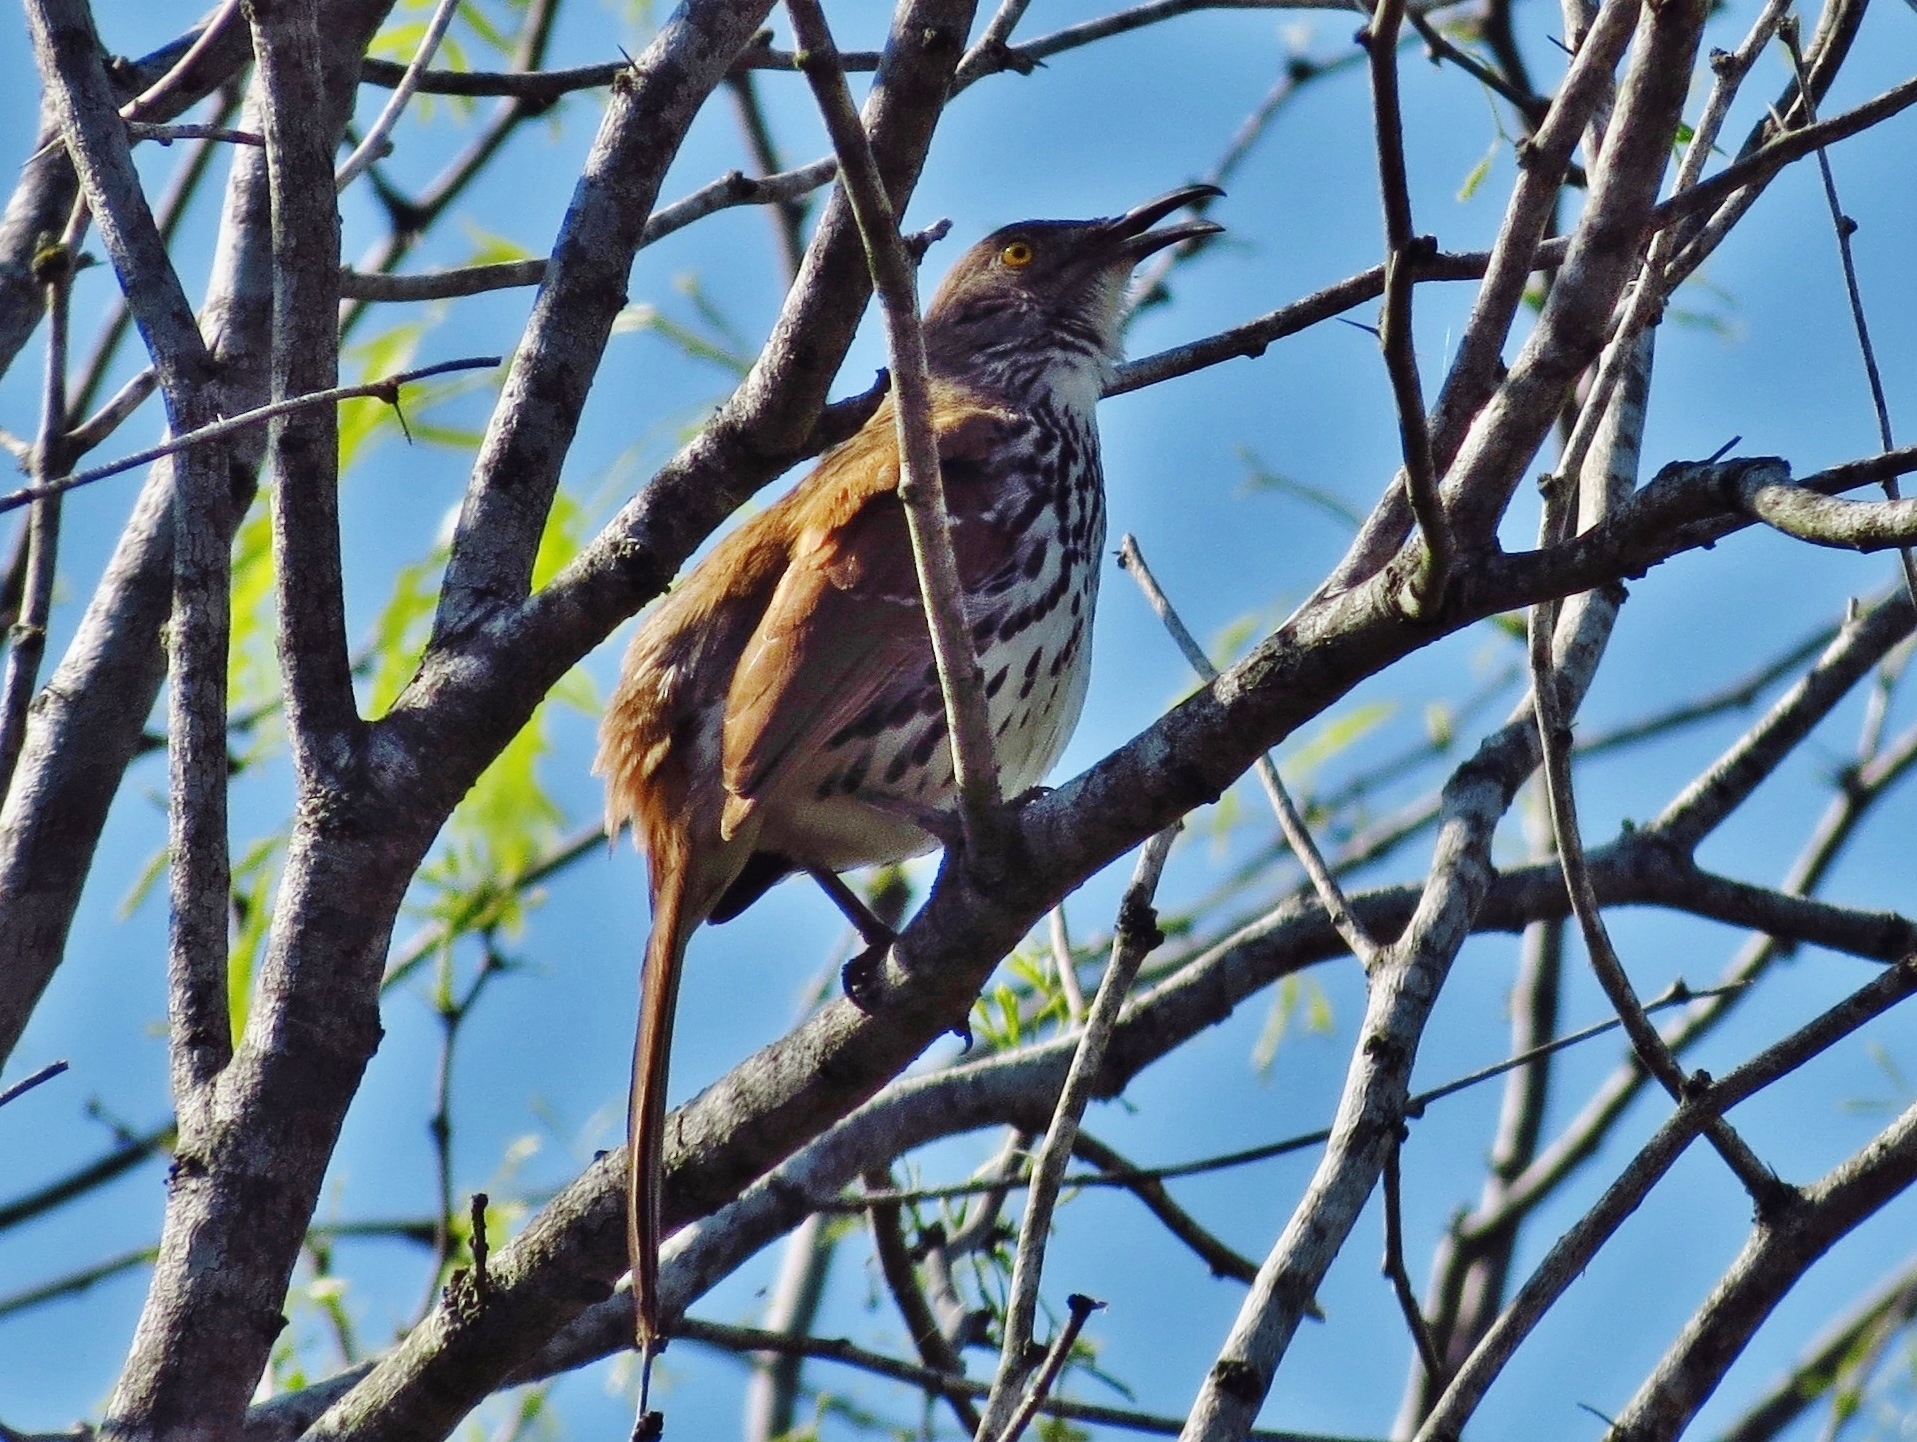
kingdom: Animalia
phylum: Chordata
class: Aves
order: Passeriformes
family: Mimidae
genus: Toxostoma
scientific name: Toxostoma longirostre
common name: Long-billed thrasher
